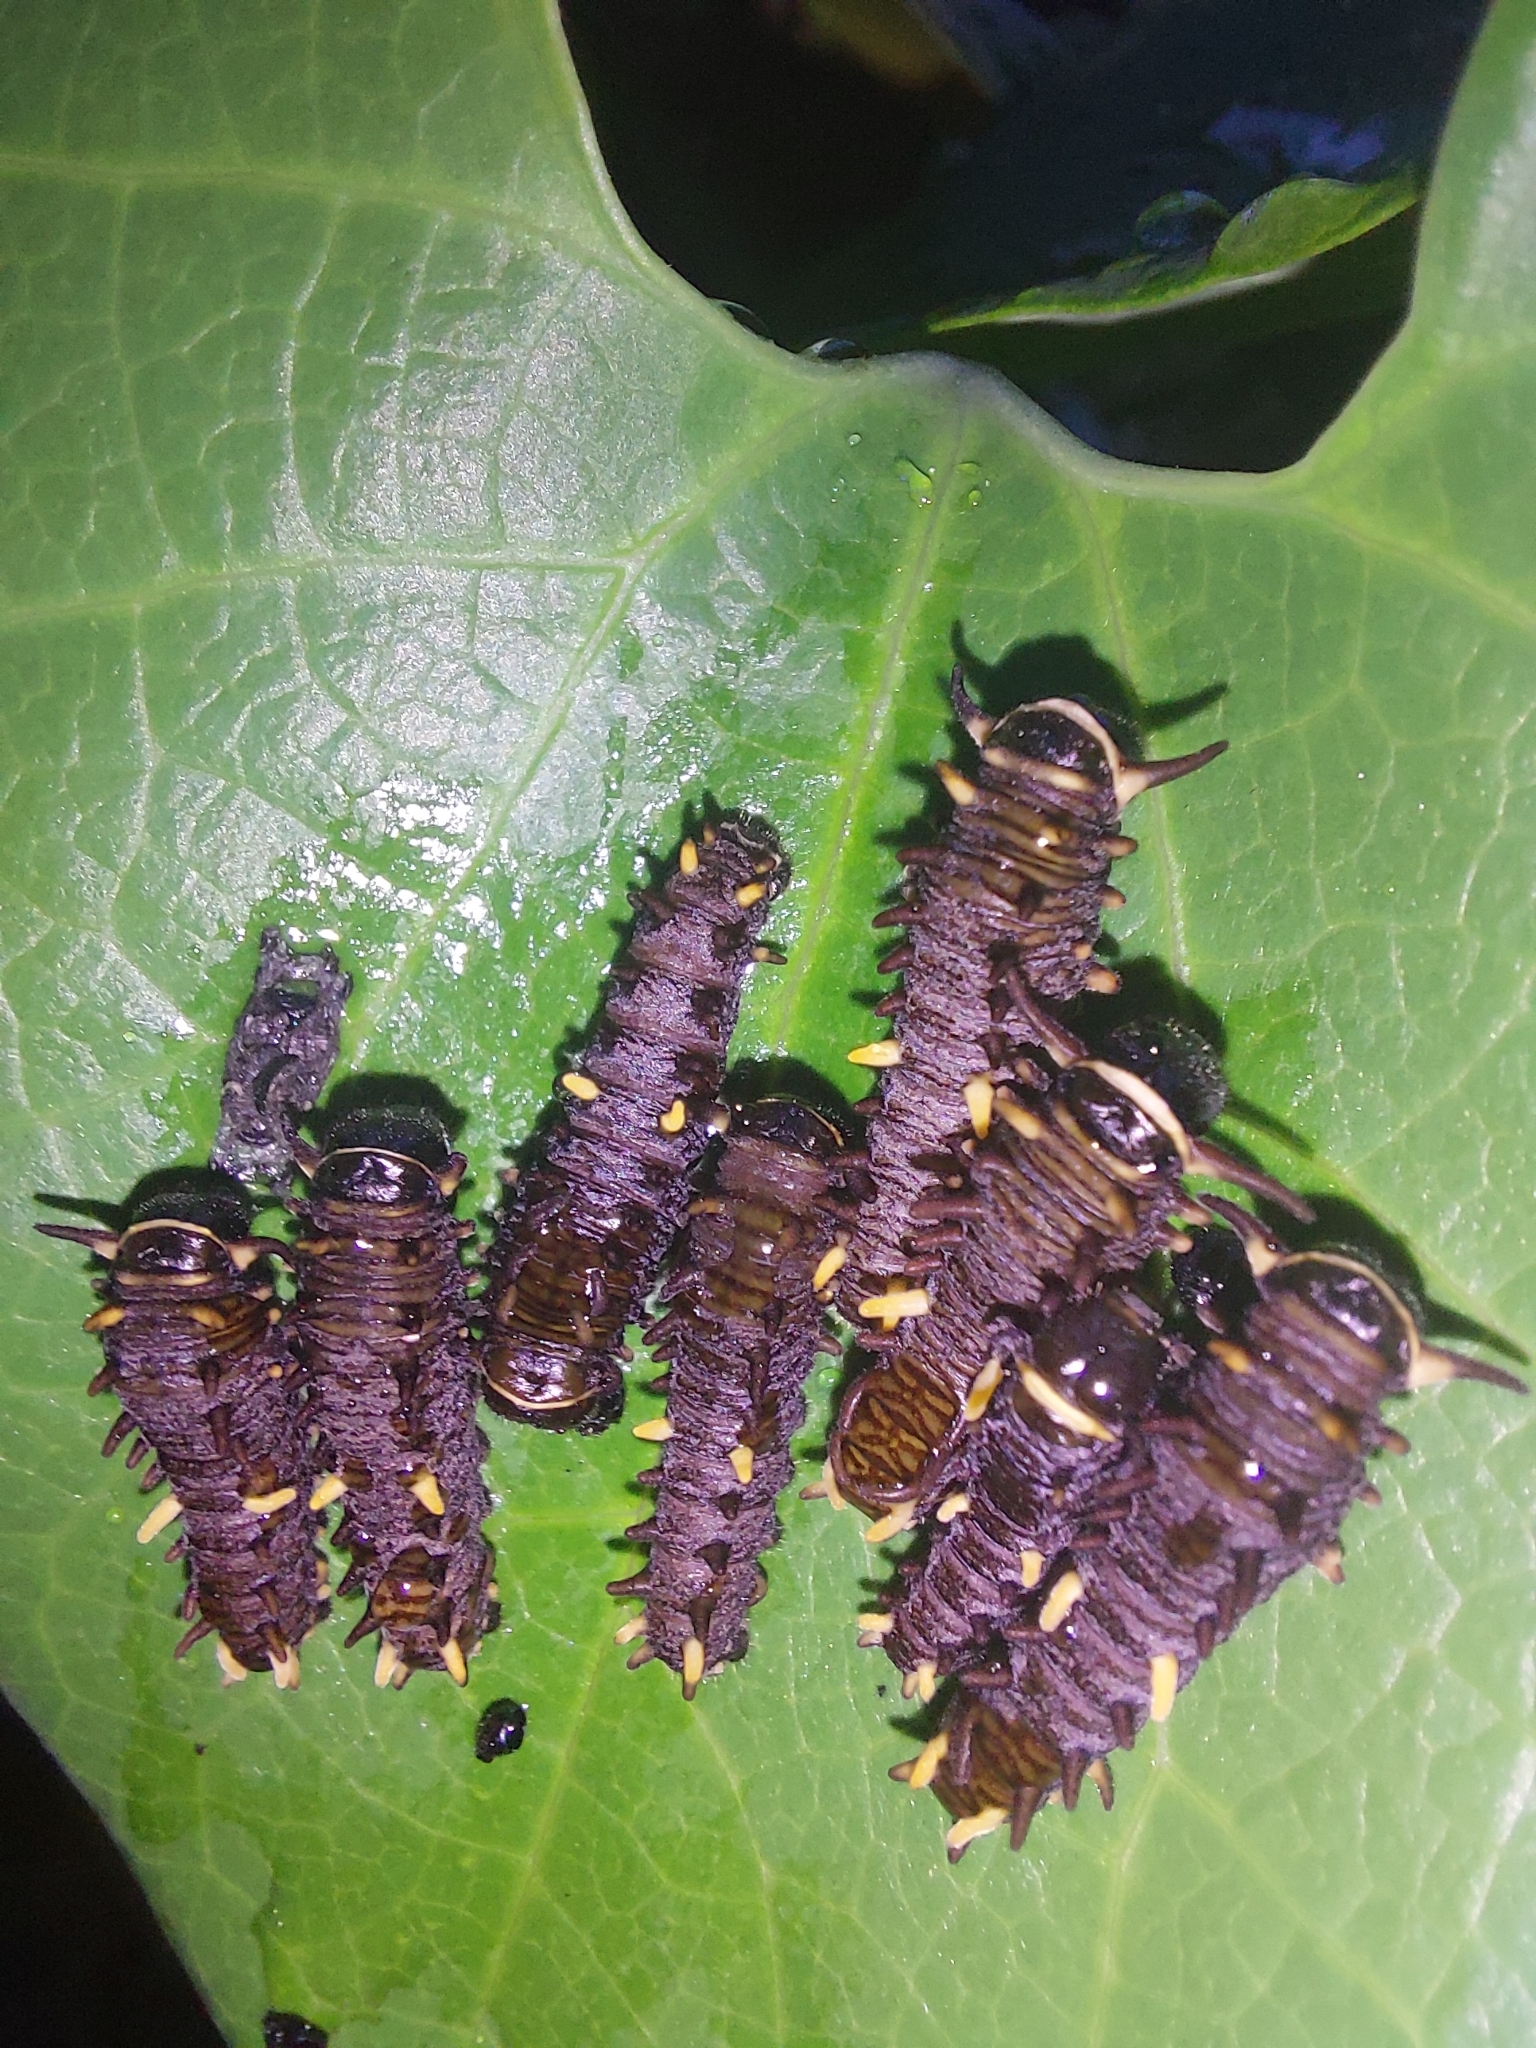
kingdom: Animalia
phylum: Arthropoda
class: Insecta
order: Lepidoptera
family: Papilionidae
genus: Battus
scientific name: Battus polydamas
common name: Polydamas swallowtail
